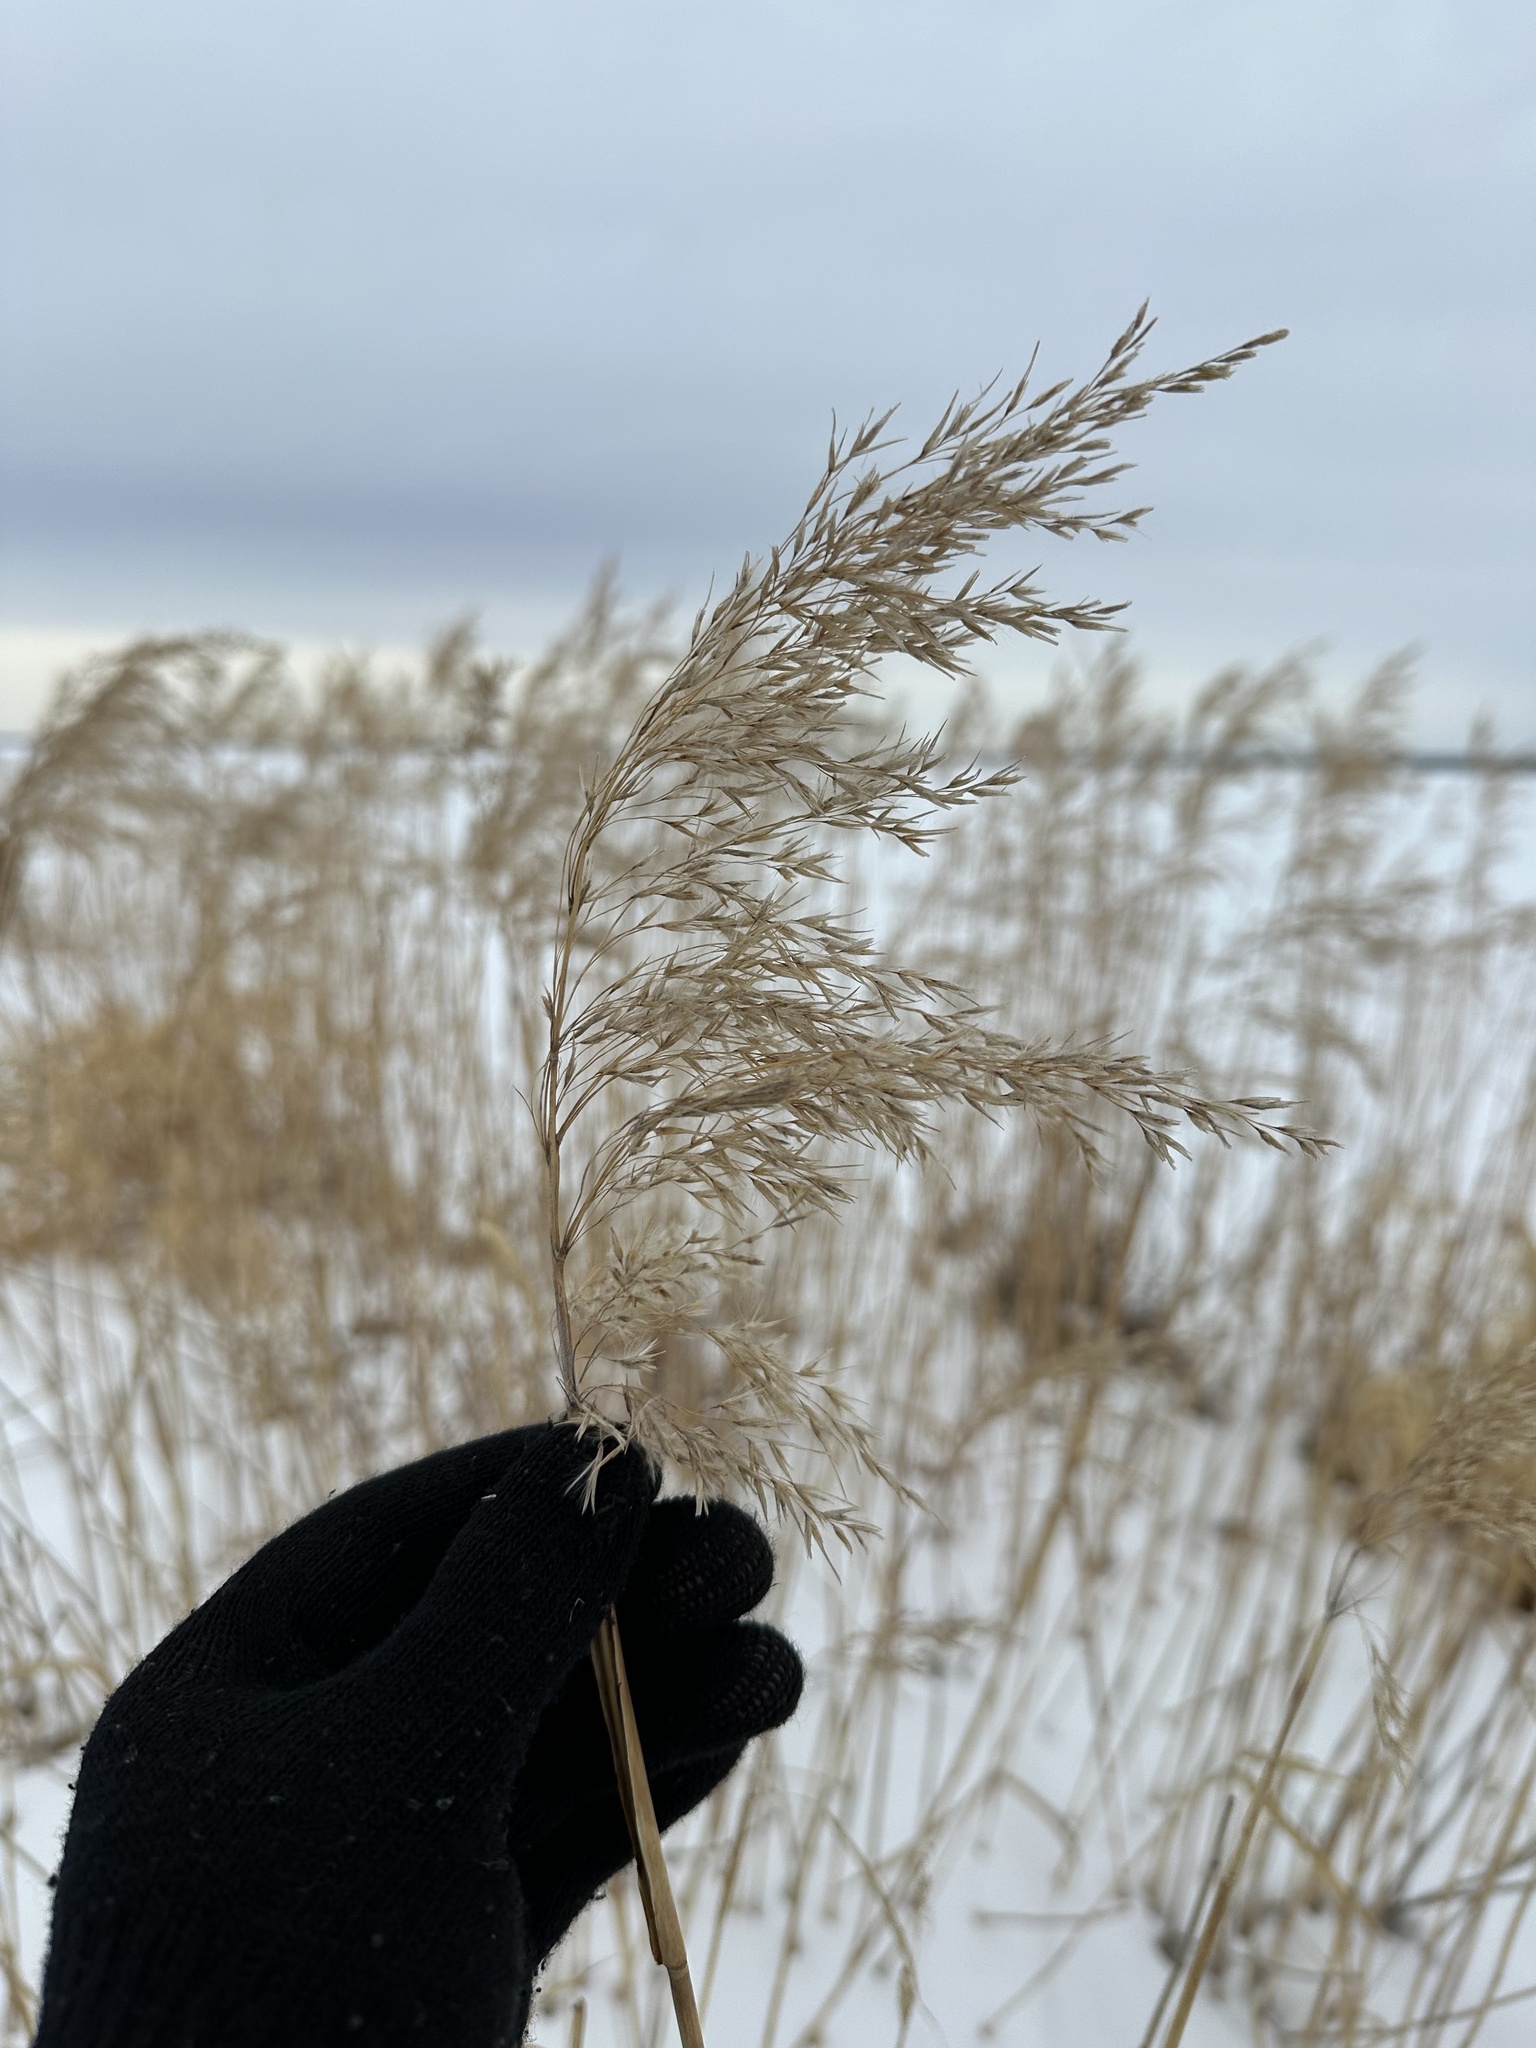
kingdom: Plantae
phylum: Tracheophyta
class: Liliopsida
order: Poales
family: Poaceae
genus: Phragmites
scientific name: Phragmites australis
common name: Common reed
